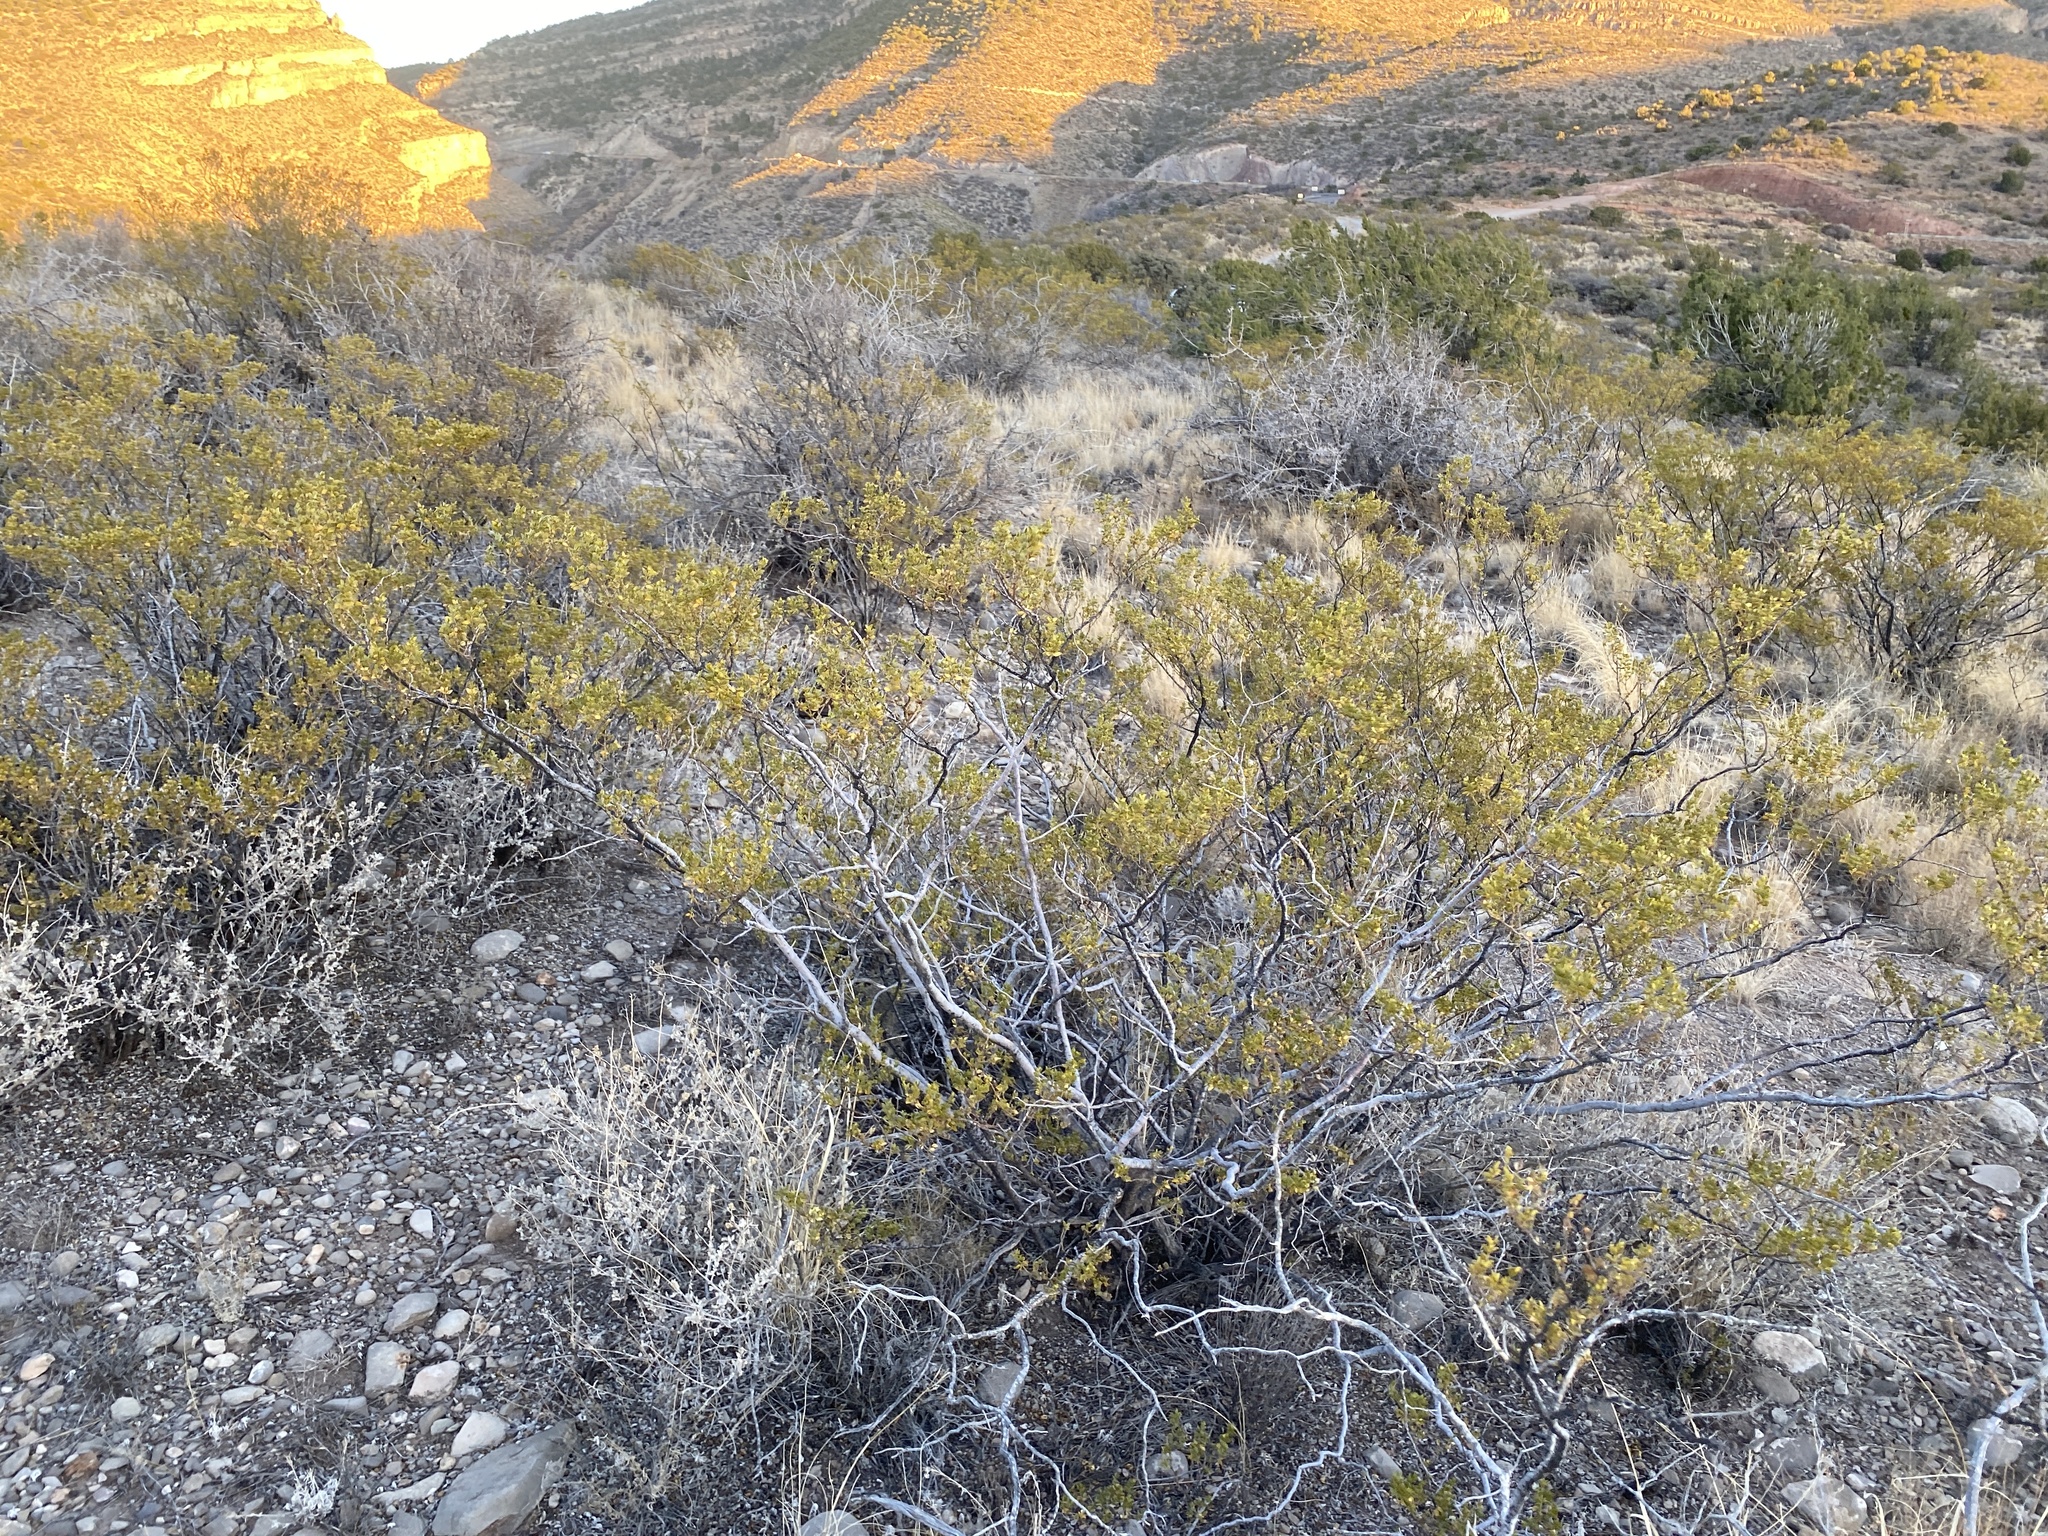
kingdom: Plantae
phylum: Tracheophyta
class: Magnoliopsida
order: Zygophyllales
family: Zygophyllaceae
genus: Larrea
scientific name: Larrea tridentata
